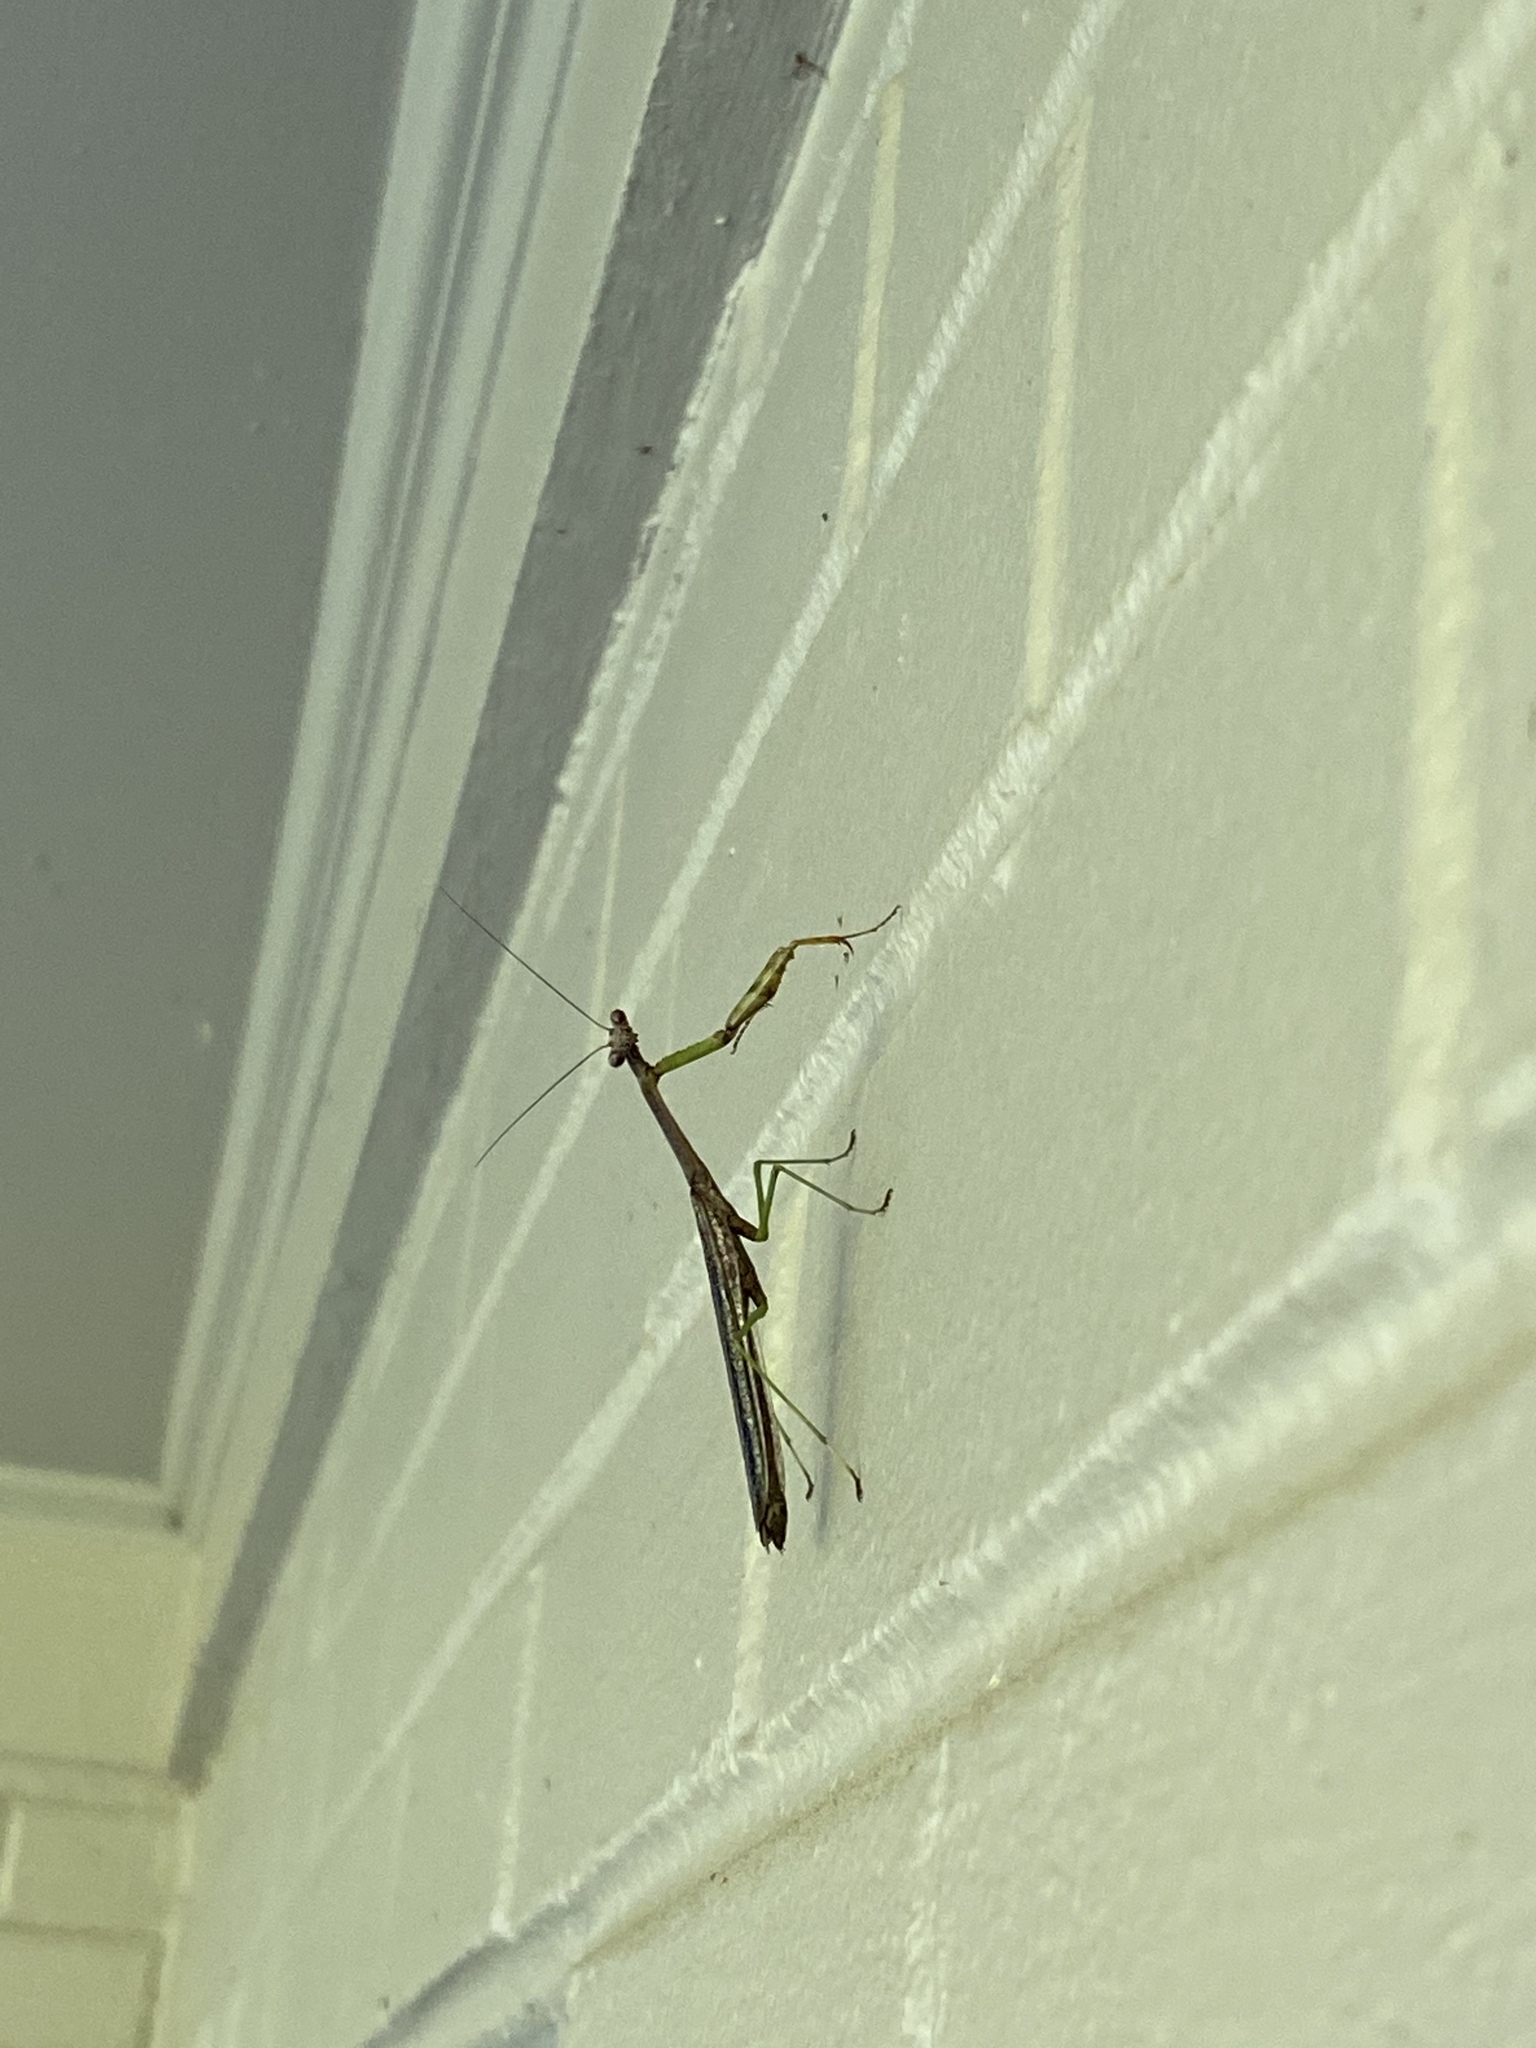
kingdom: Animalia
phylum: Arthropoda
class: Insecta
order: Mantodea
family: Mantidae
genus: Stagmomantis
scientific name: Stagmomantis carolina
